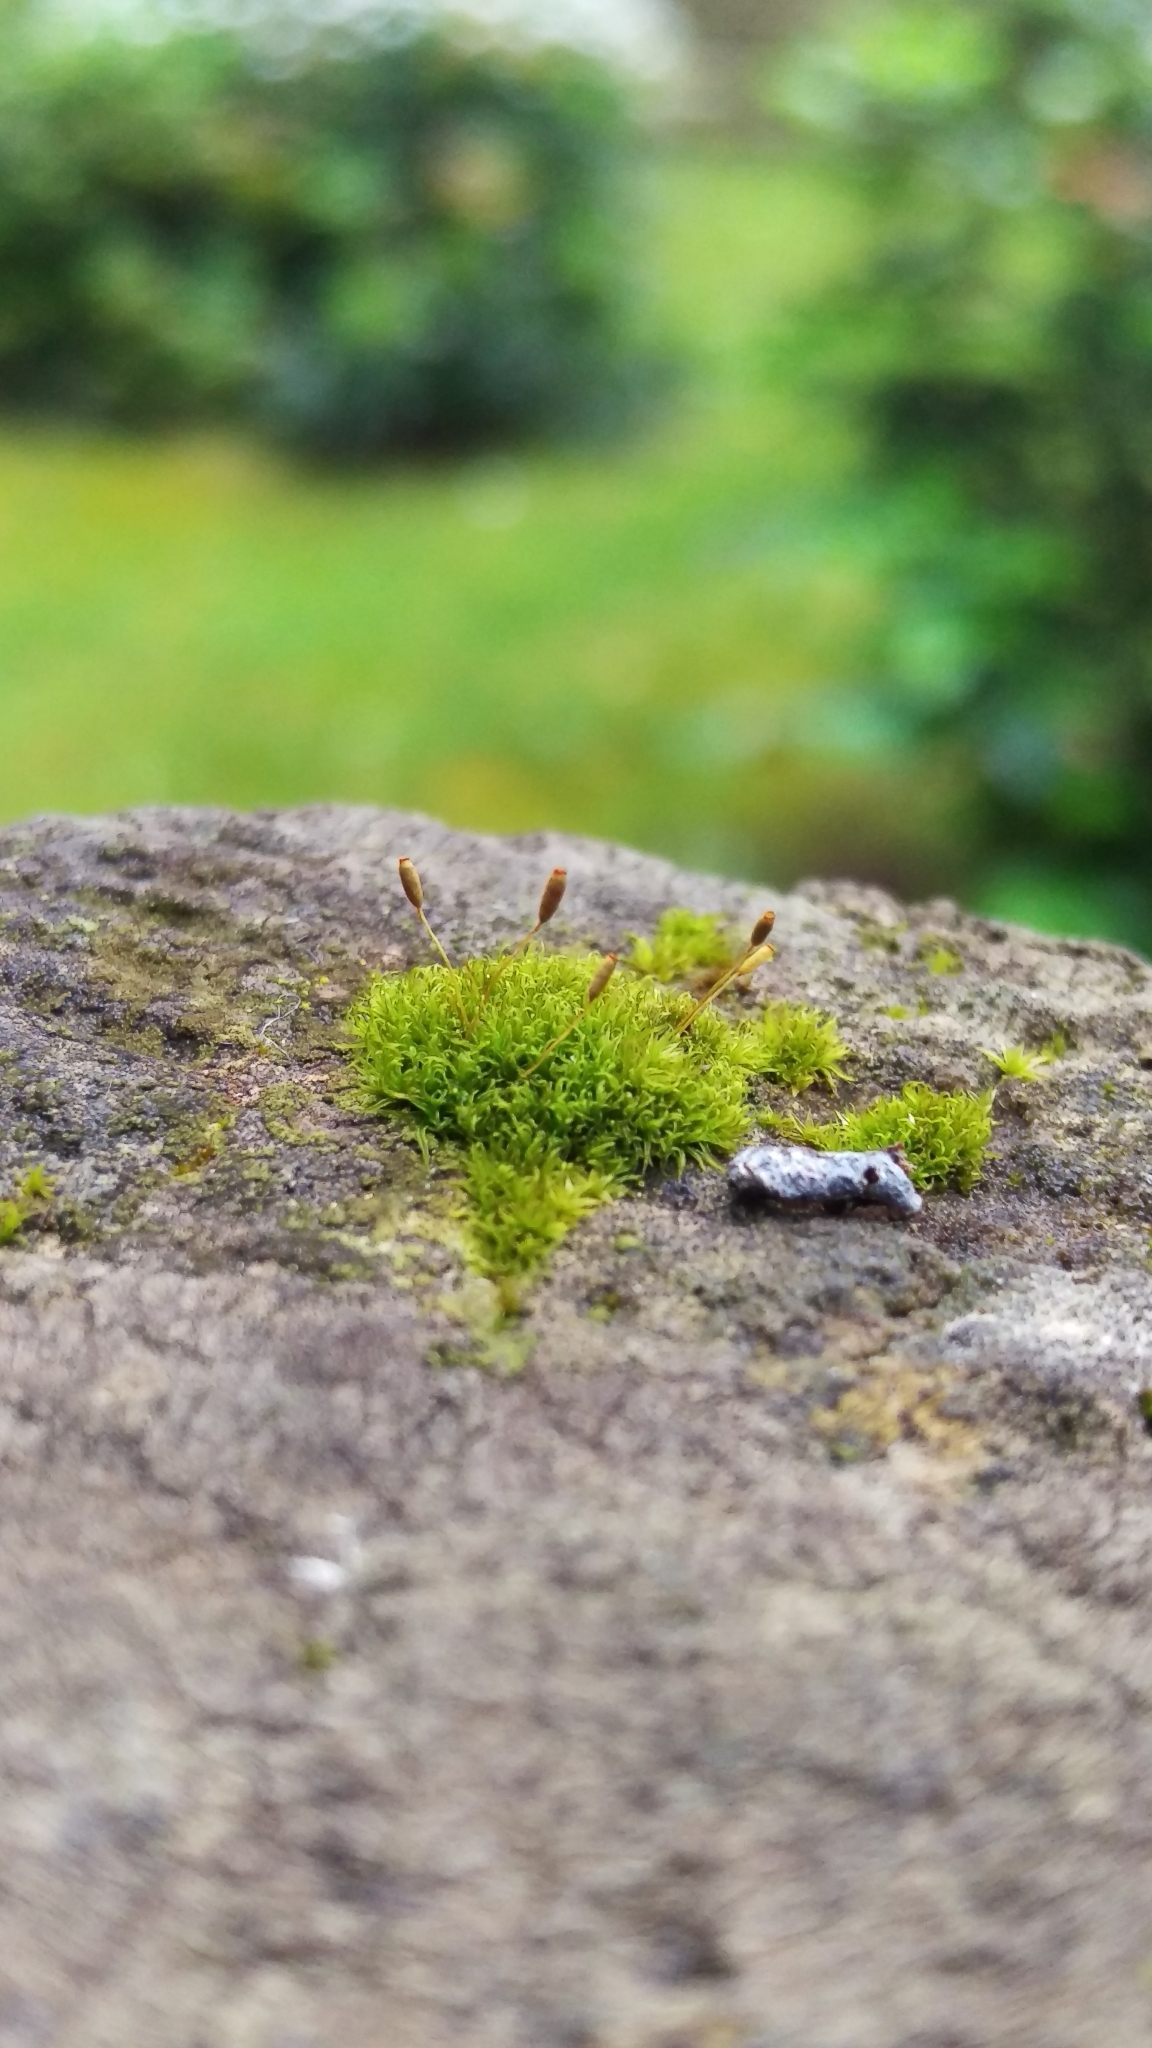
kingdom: Plantae
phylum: Bryophyta
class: Bryopsida
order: Dicranales
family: Rhabdoweisiaceae
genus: Dicranoweisia
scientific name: Dicranoweisia cirrata
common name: Common pincushion
